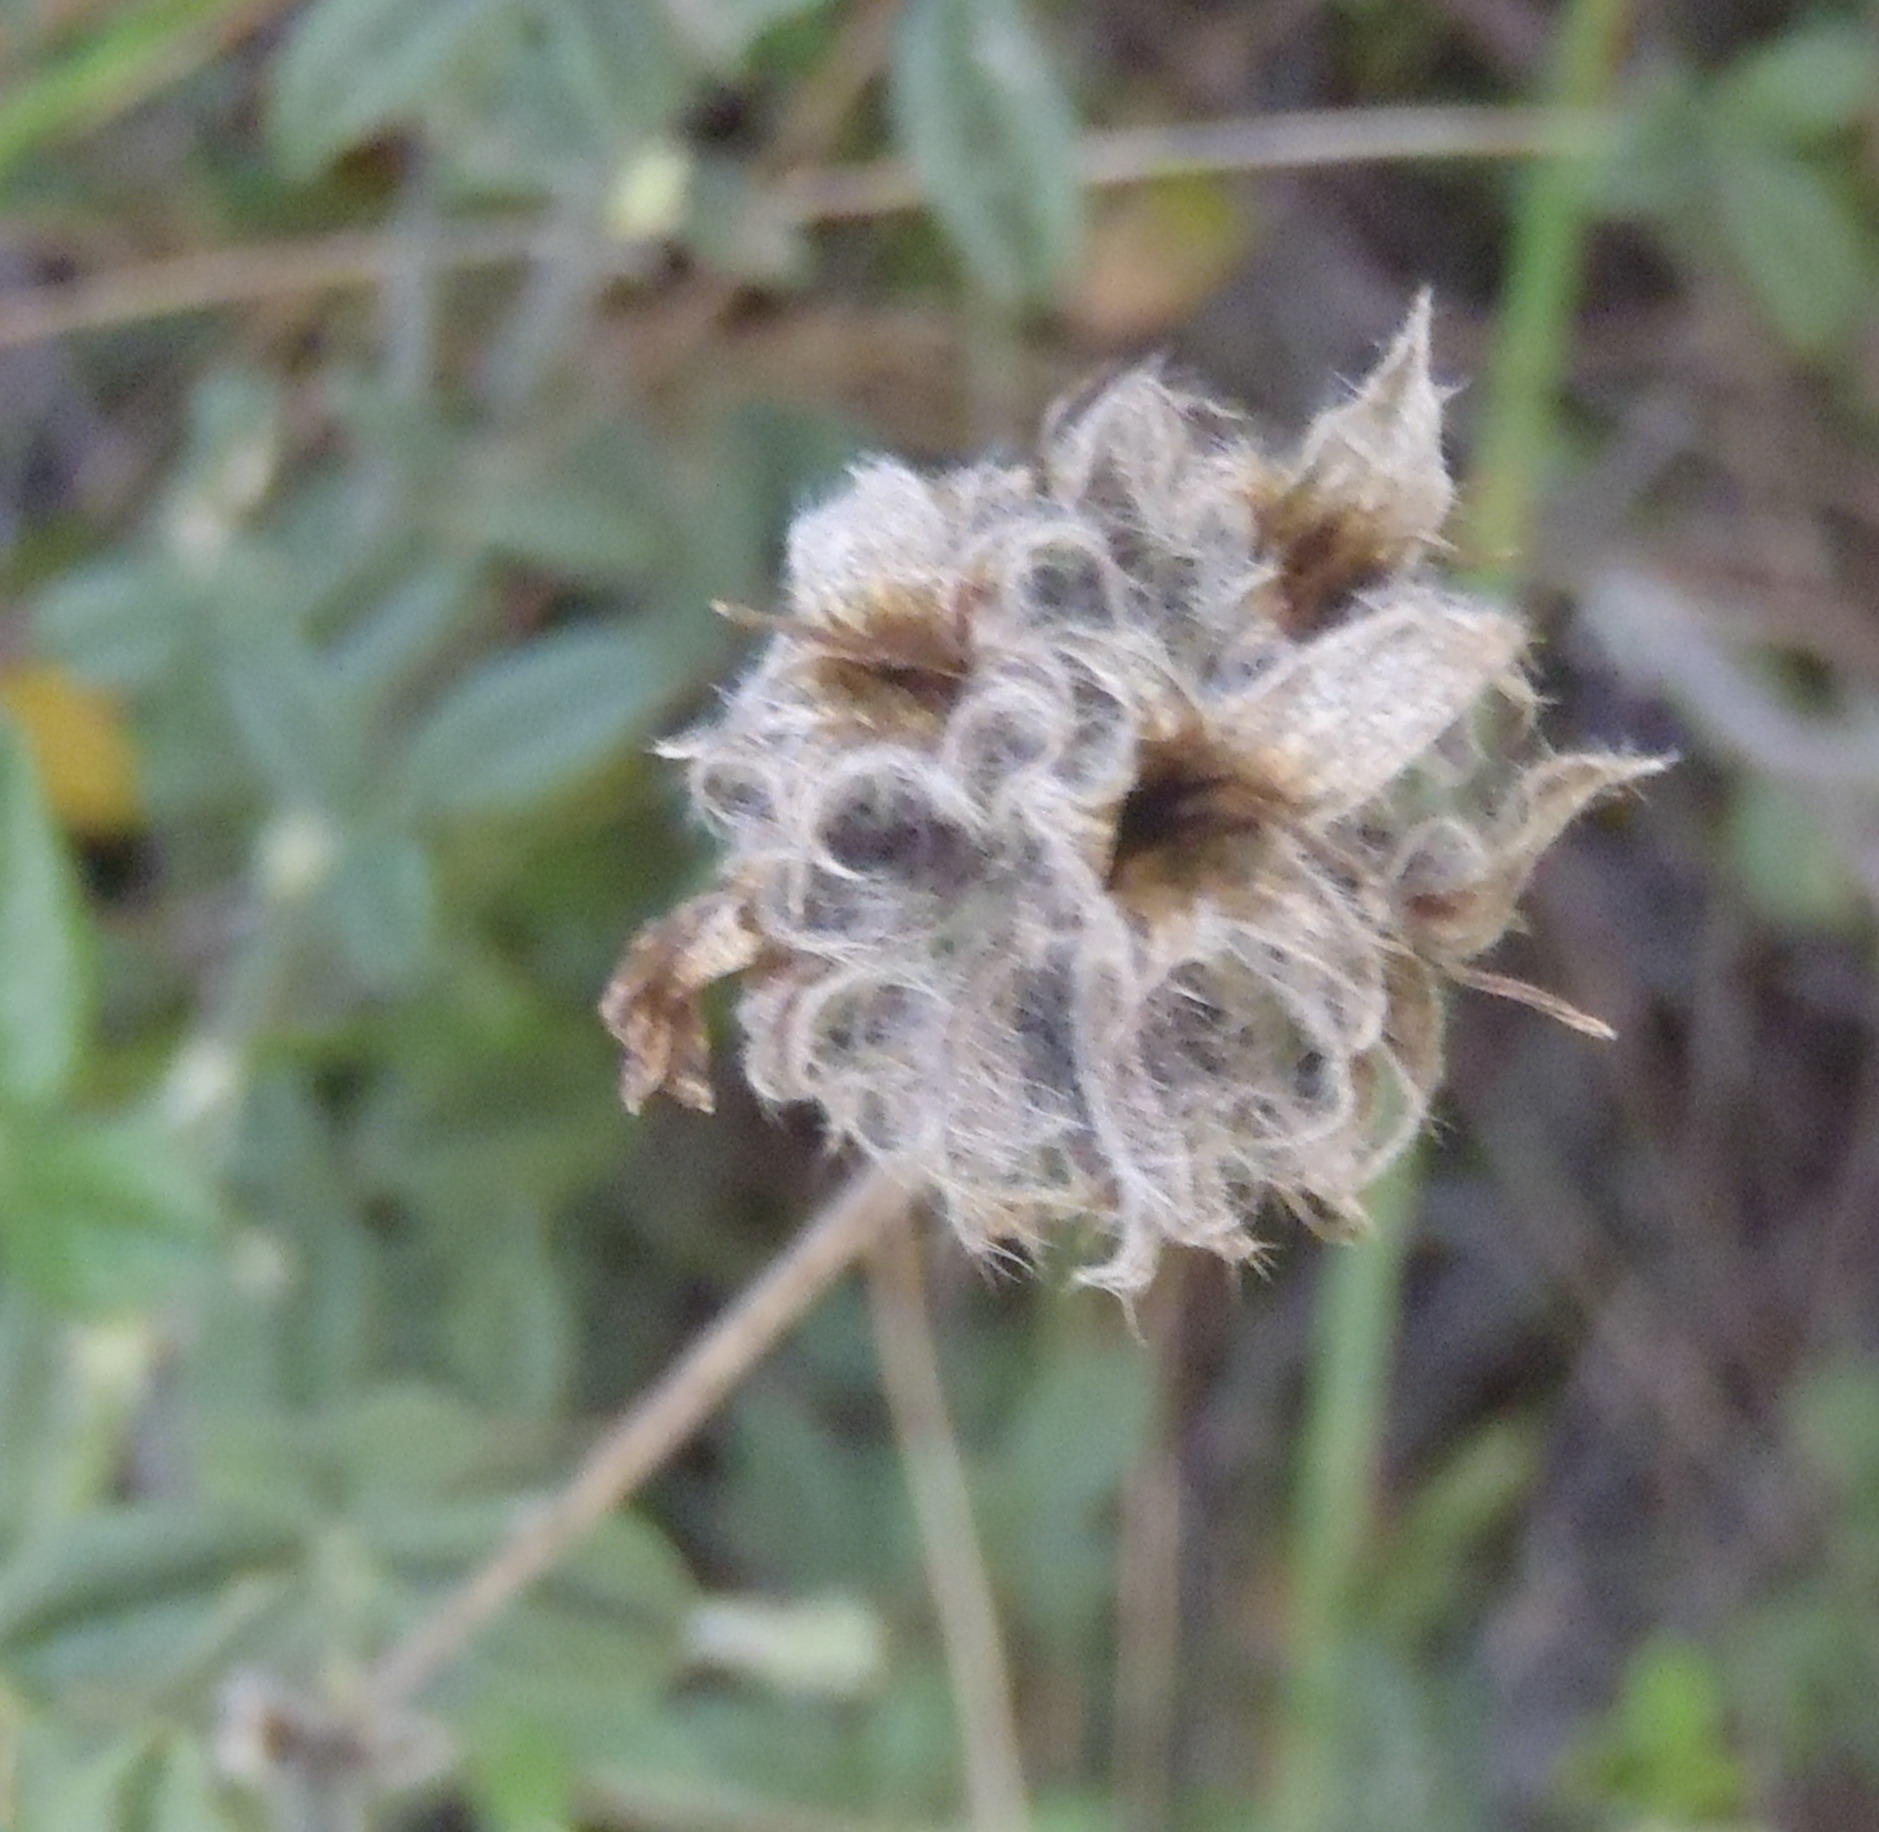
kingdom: Plantae
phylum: Tracheophyta
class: Magnoliopsida
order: Fabales
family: Fabaceae
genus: Psoralea
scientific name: Psoralea sericea
